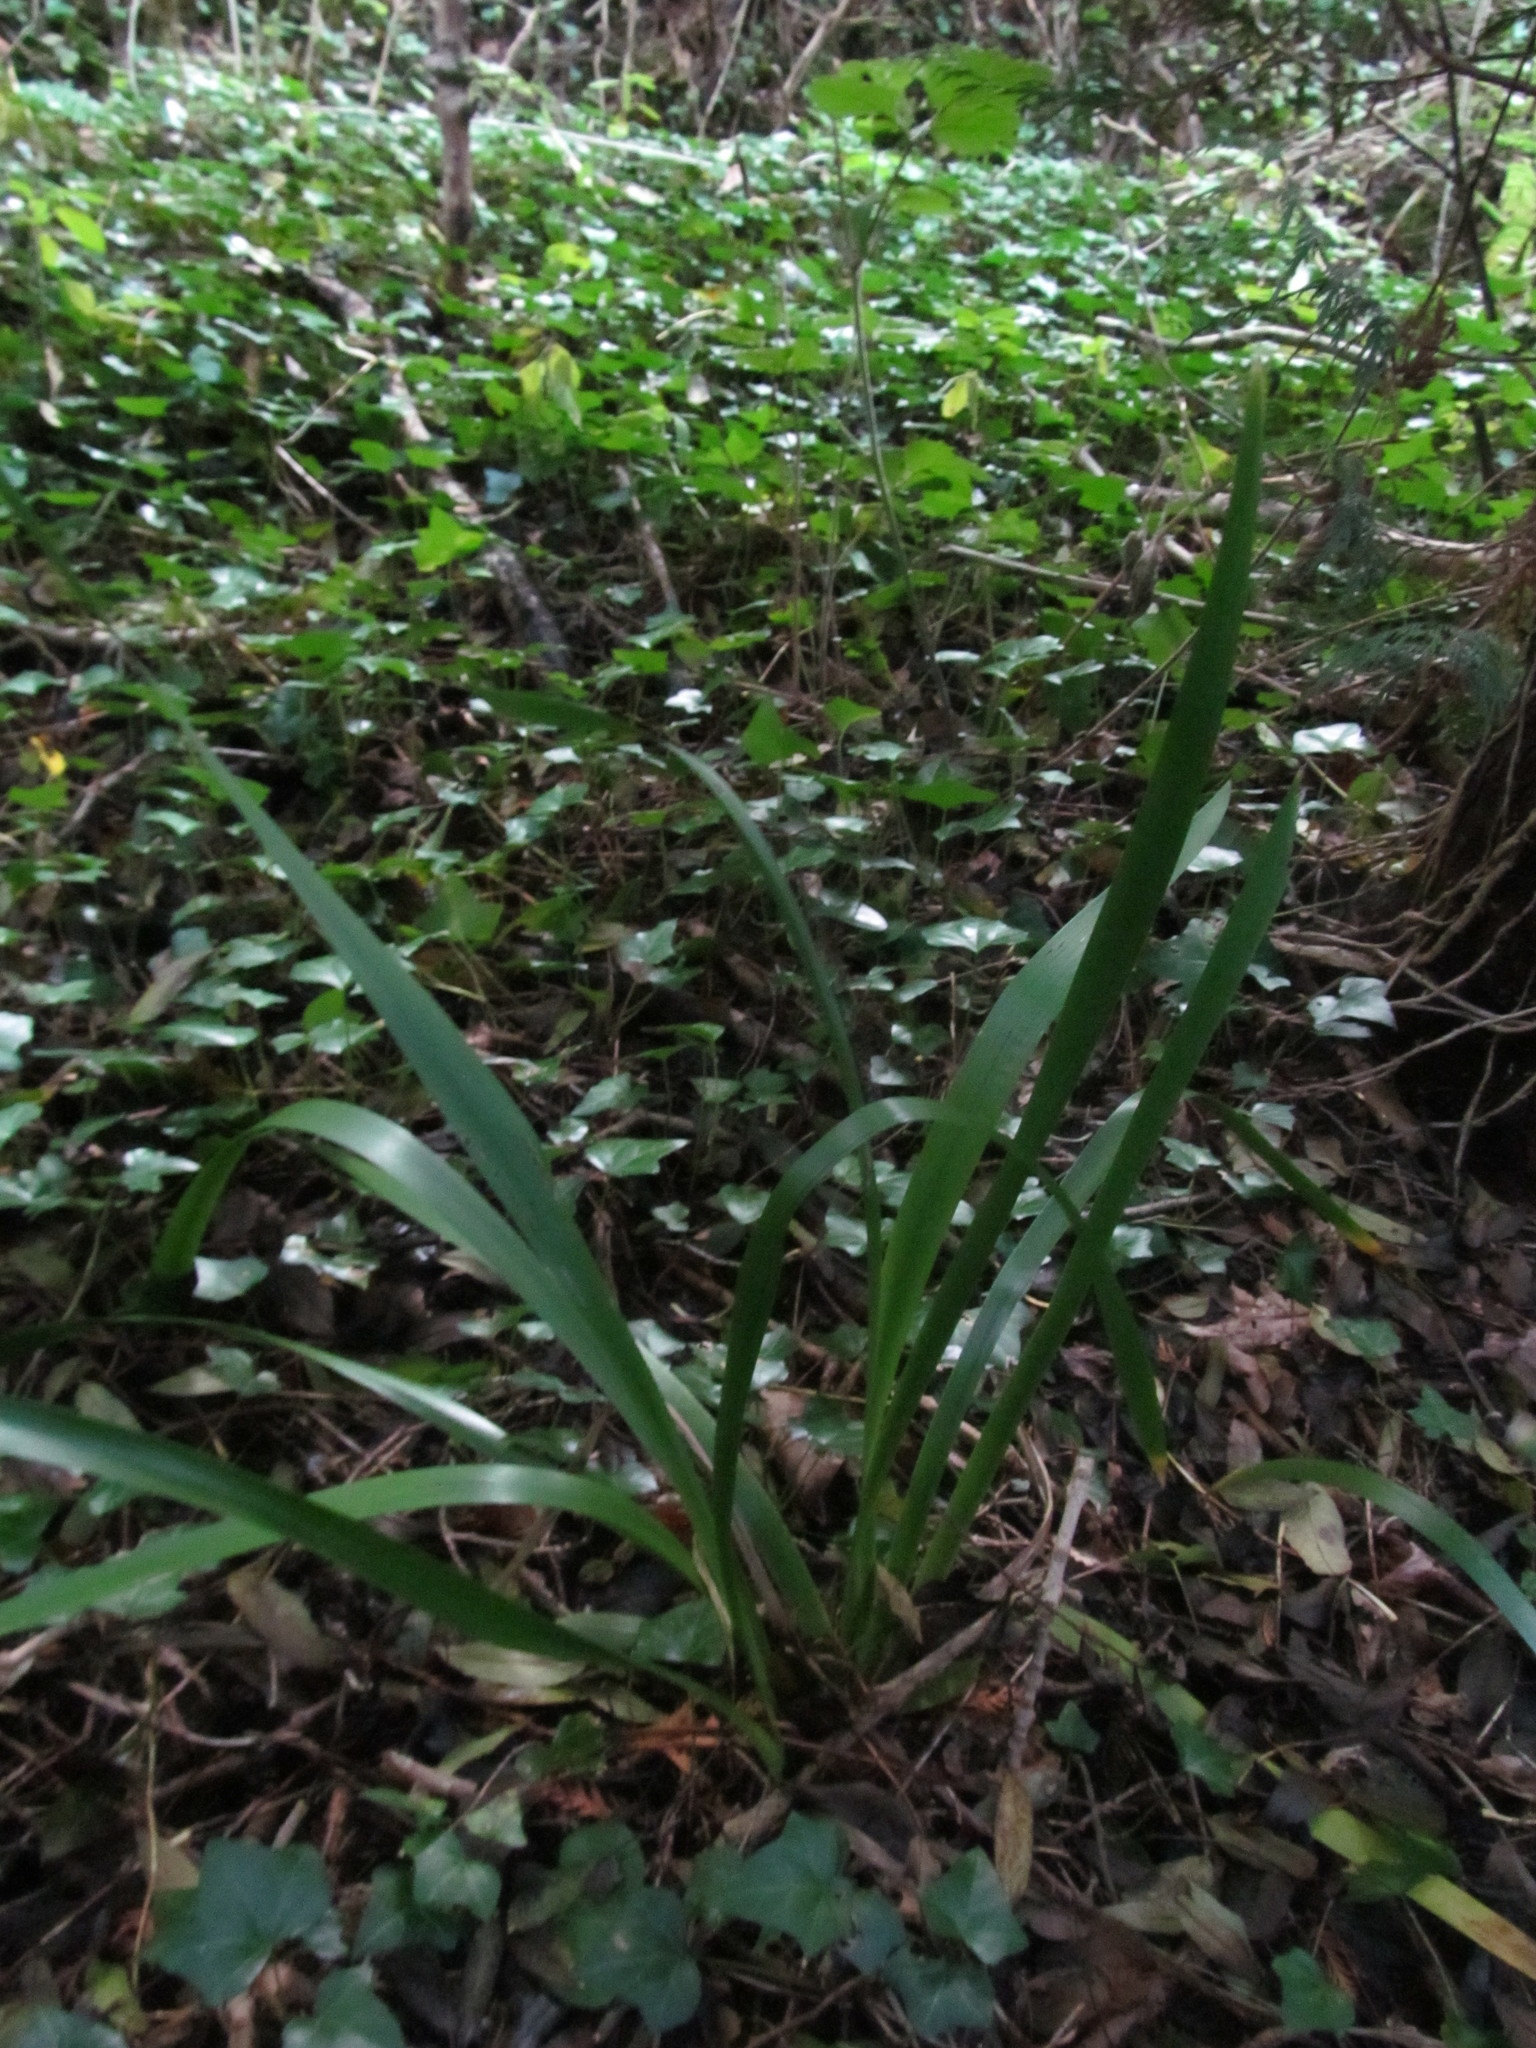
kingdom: Plantae
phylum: Tracheophyta
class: Liliopsida
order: Asparagales
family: Iridaceae
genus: Iris
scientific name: Iris foetidissima
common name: Stinking iris
